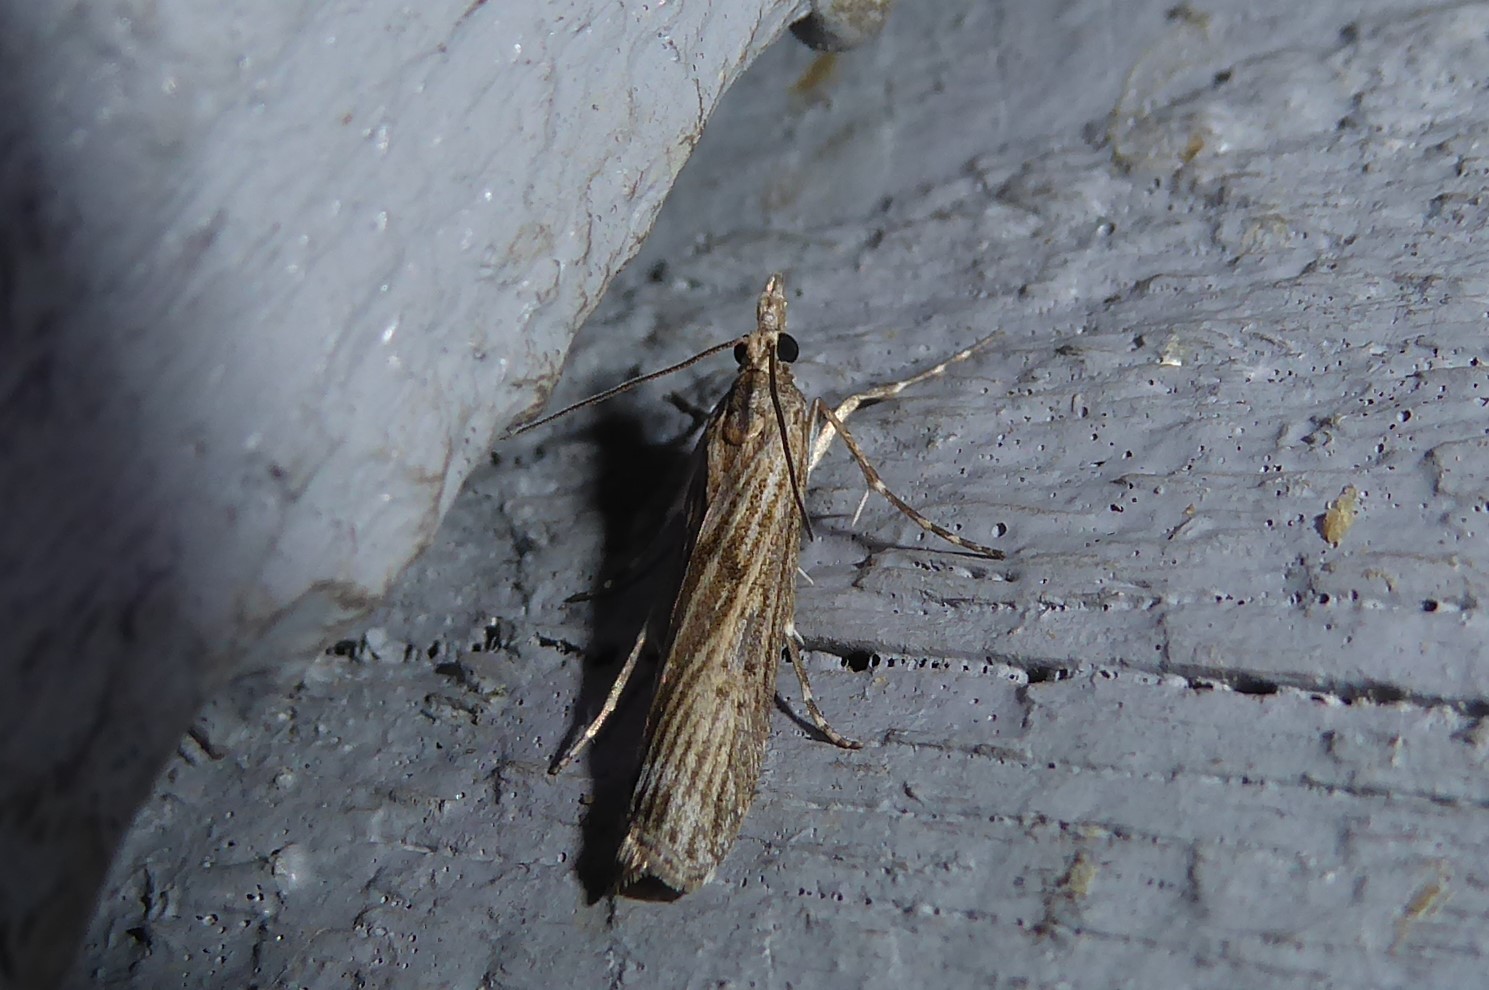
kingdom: Animalia
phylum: Arthropoda
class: Insecta
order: Lepidoptera
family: Crambidae
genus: Eudonia
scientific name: Eudonia atmogramma
